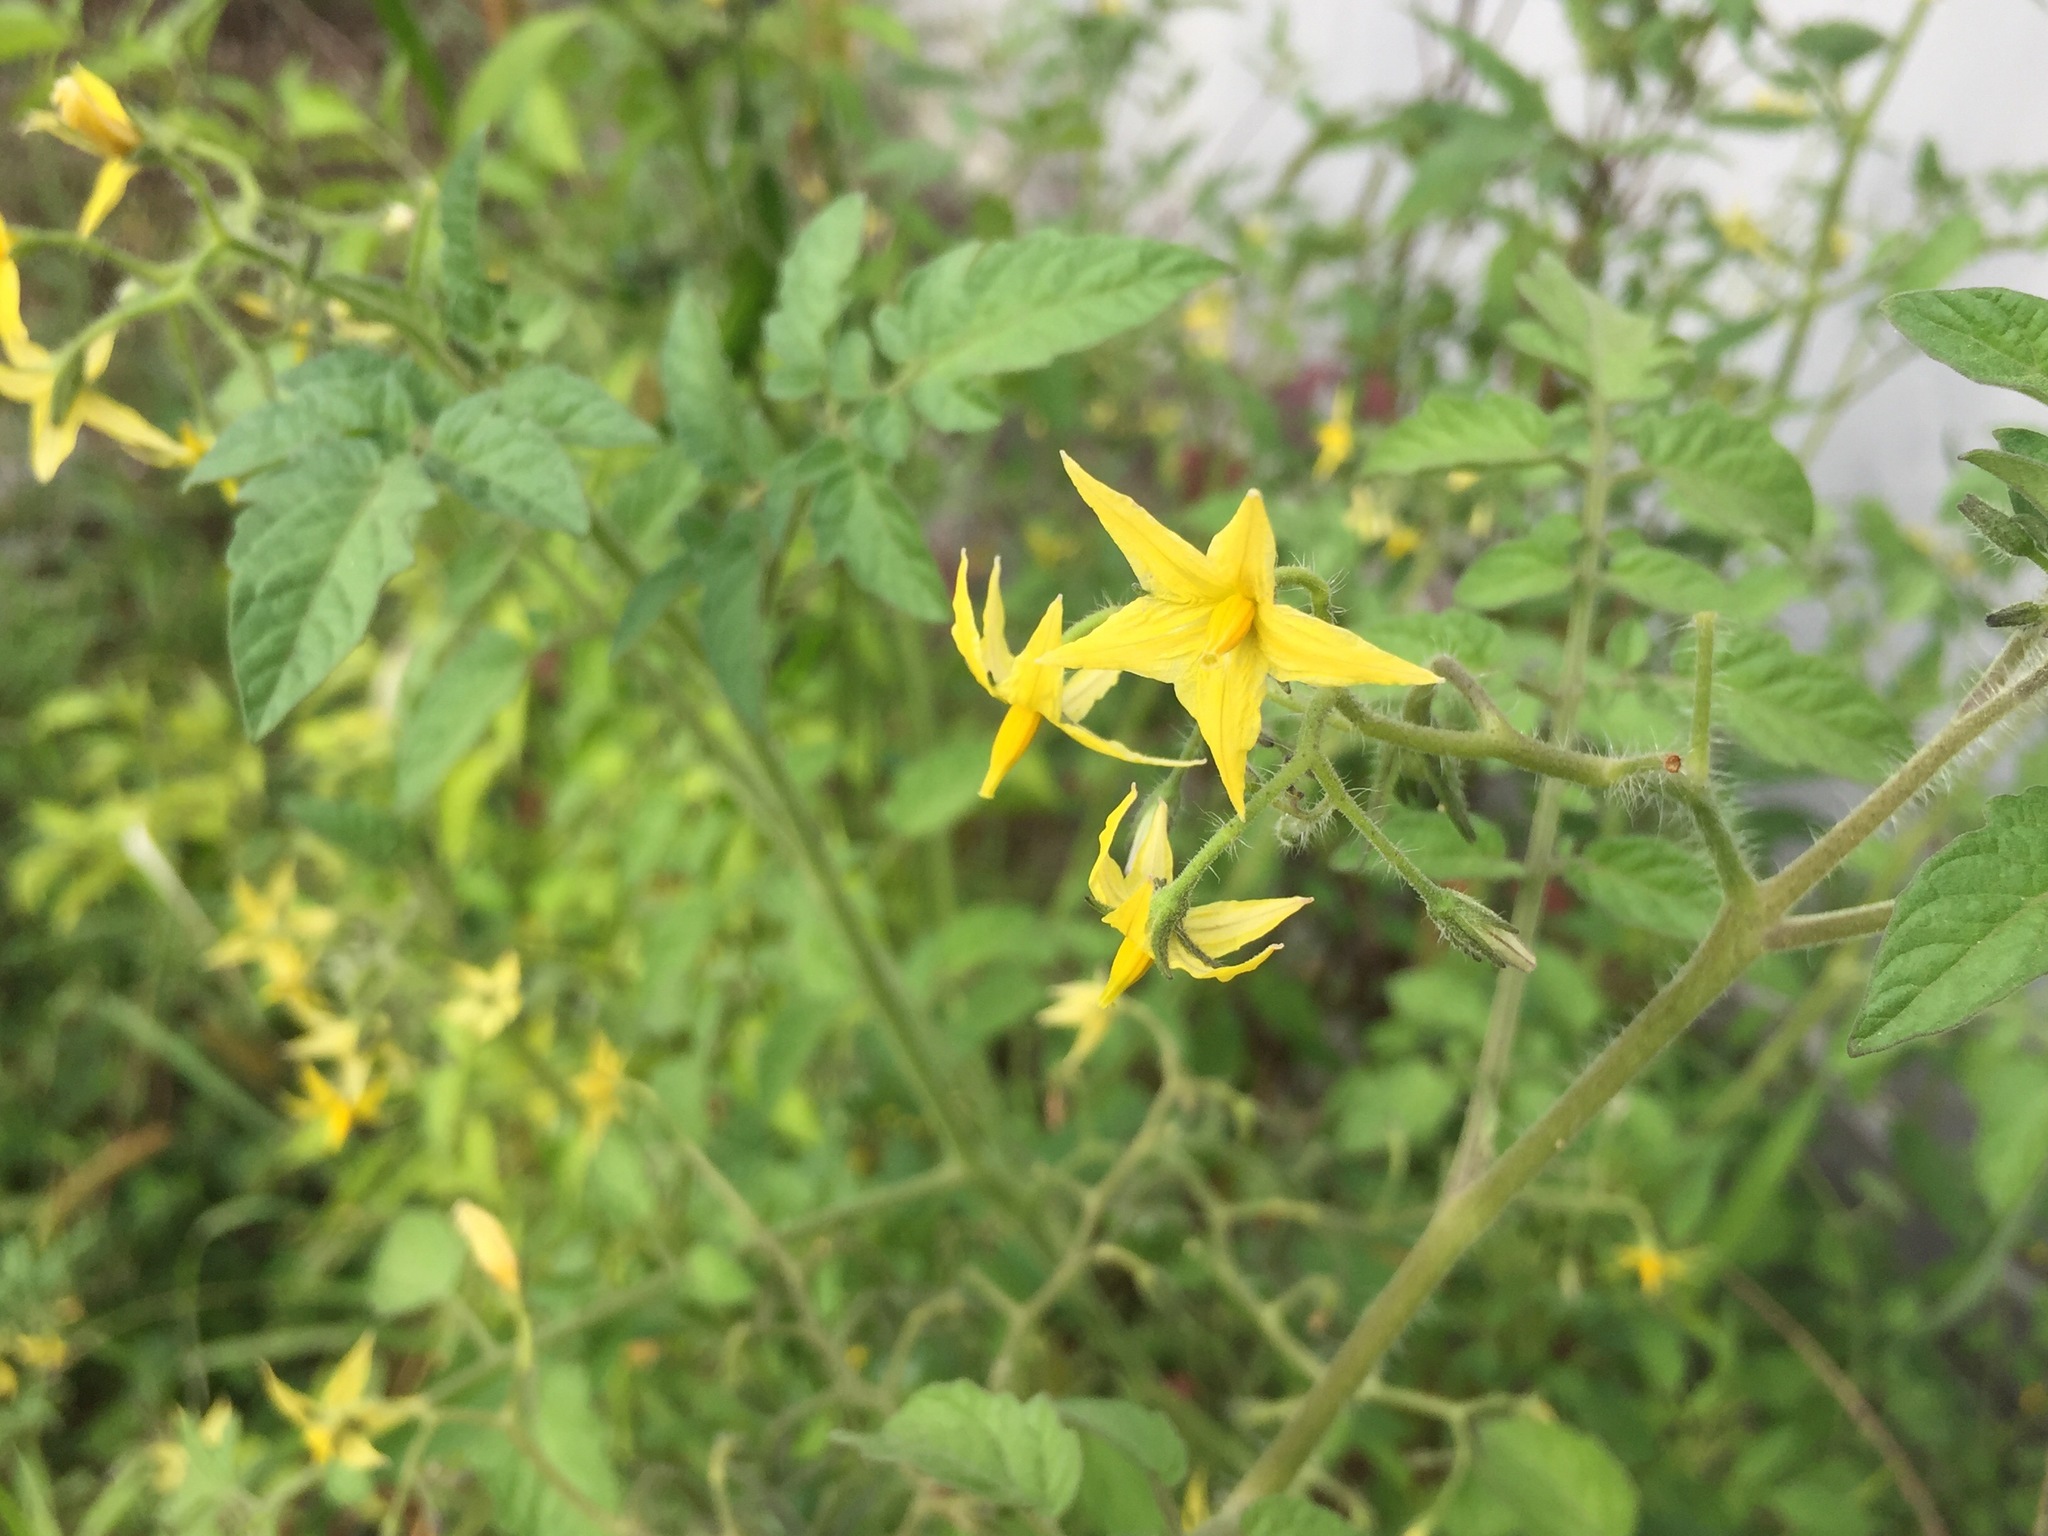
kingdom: Plantae
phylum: Tracheophyta
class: Magnoliopsida
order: Solanales
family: Solanaceae
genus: Solanum
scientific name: Solanum lycopersicum
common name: Garden tomato
